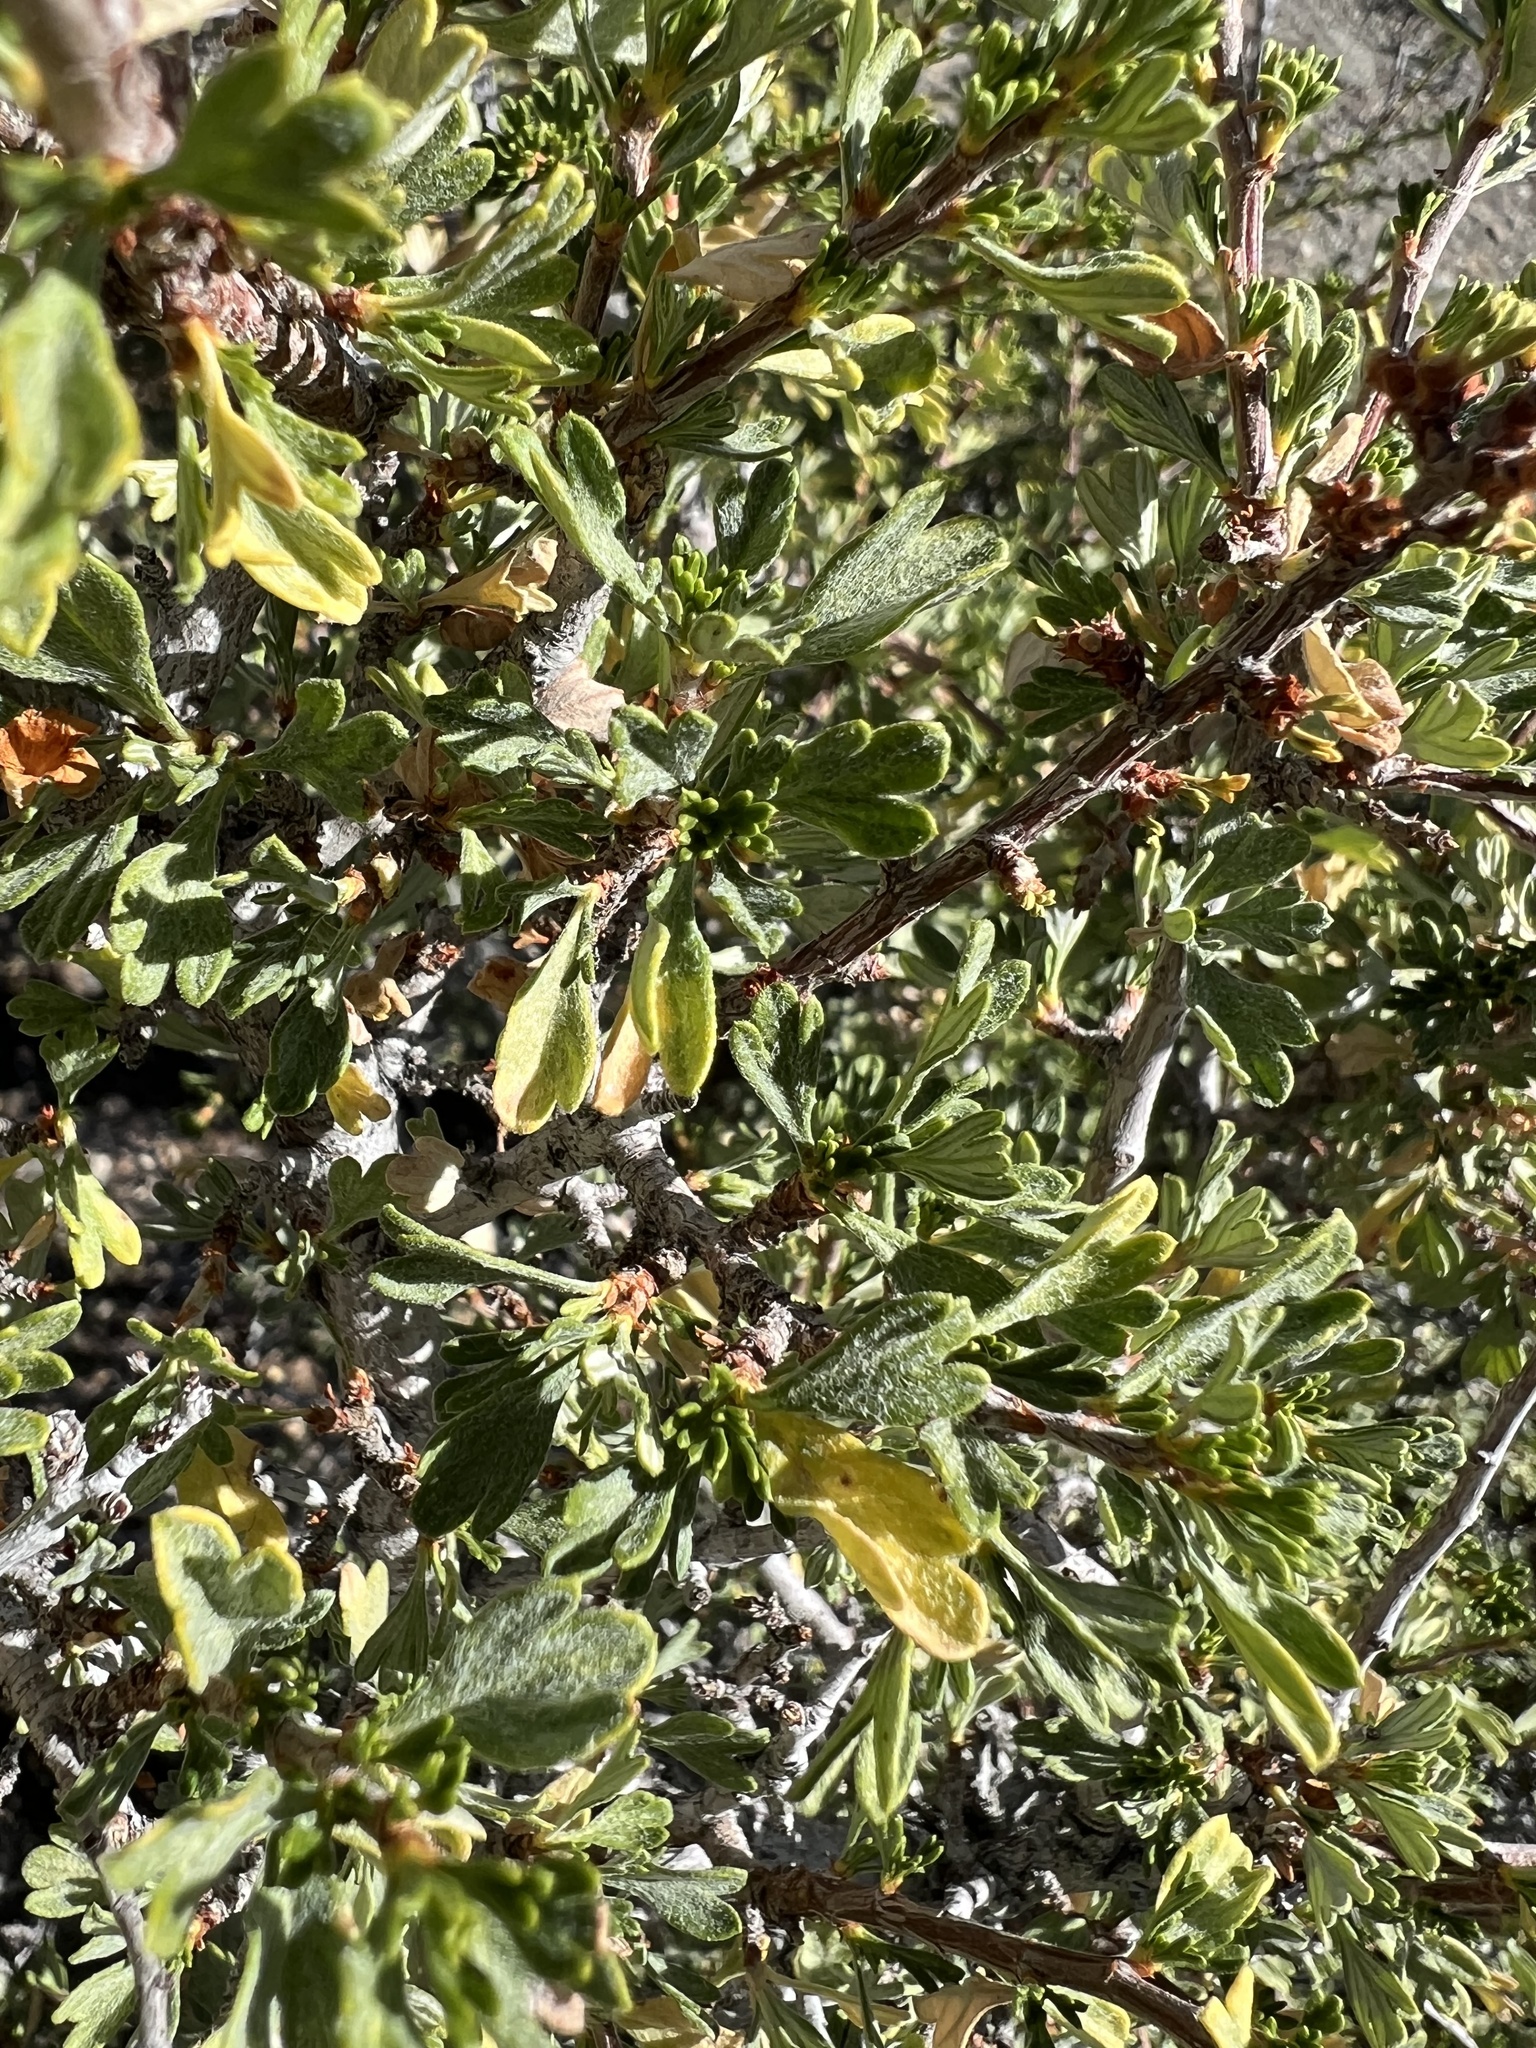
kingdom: Plantae
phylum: Tracheophyta
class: Magnoliopsida
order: Rosales
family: Rosaceae
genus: Purshia
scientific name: Purshia tridentata
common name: Antelope bitterbrush
